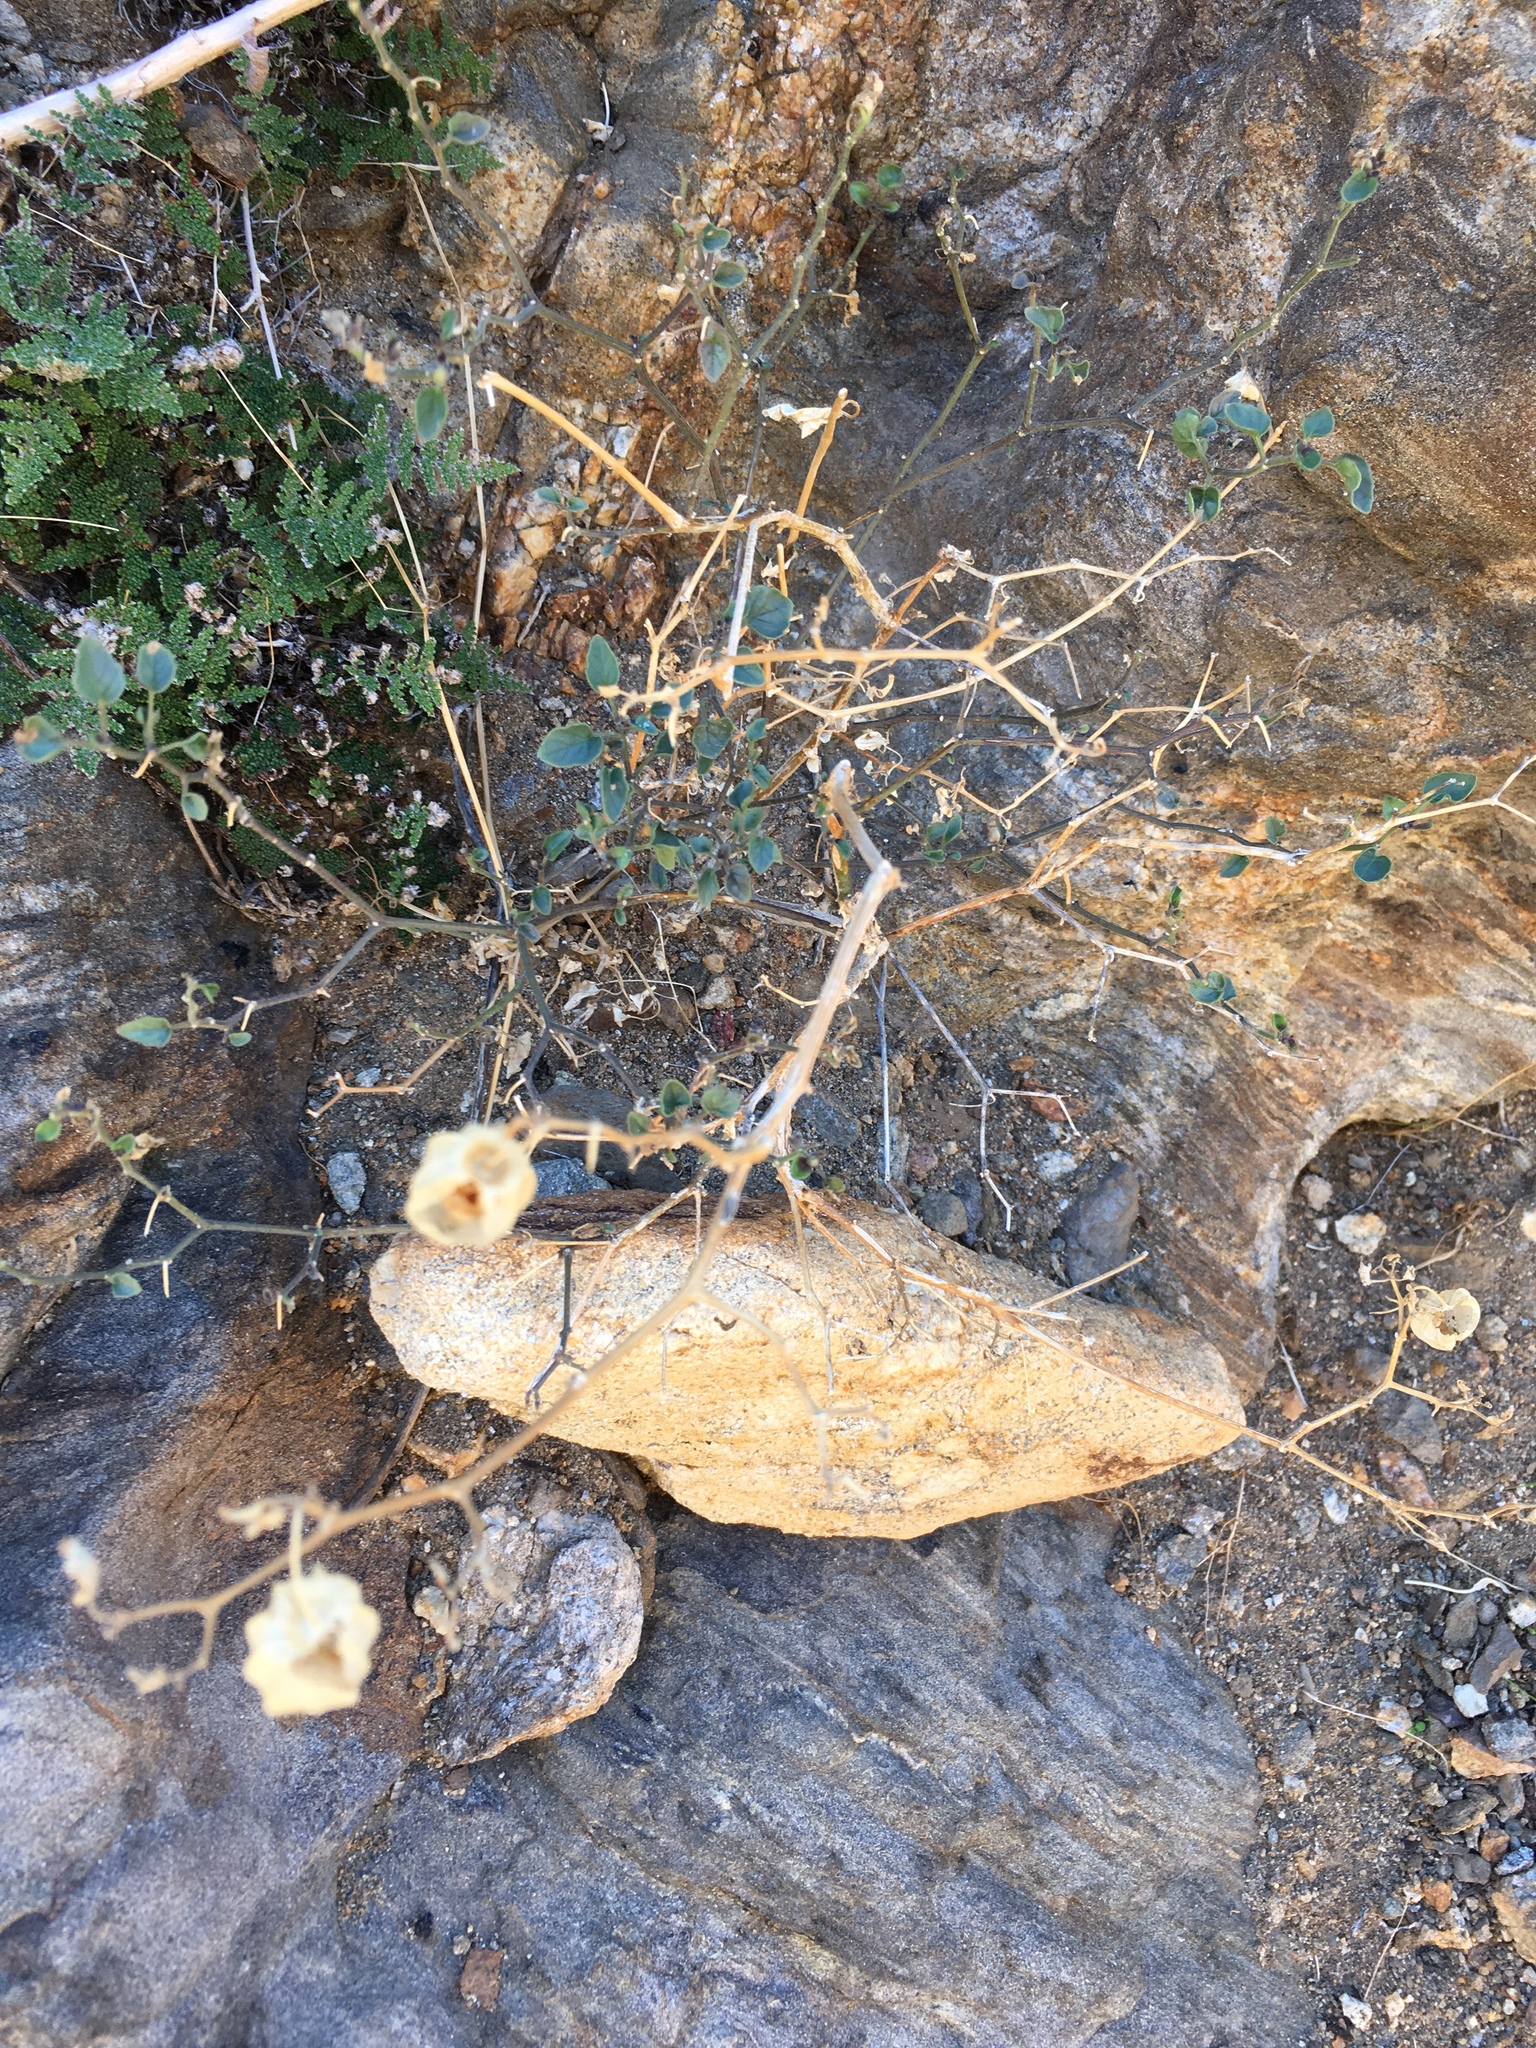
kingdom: Plantae
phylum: Tracheophyta
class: Magnoliopsida
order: Solanales
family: Solanaceae
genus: Physalis
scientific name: Physalis crassifolia
